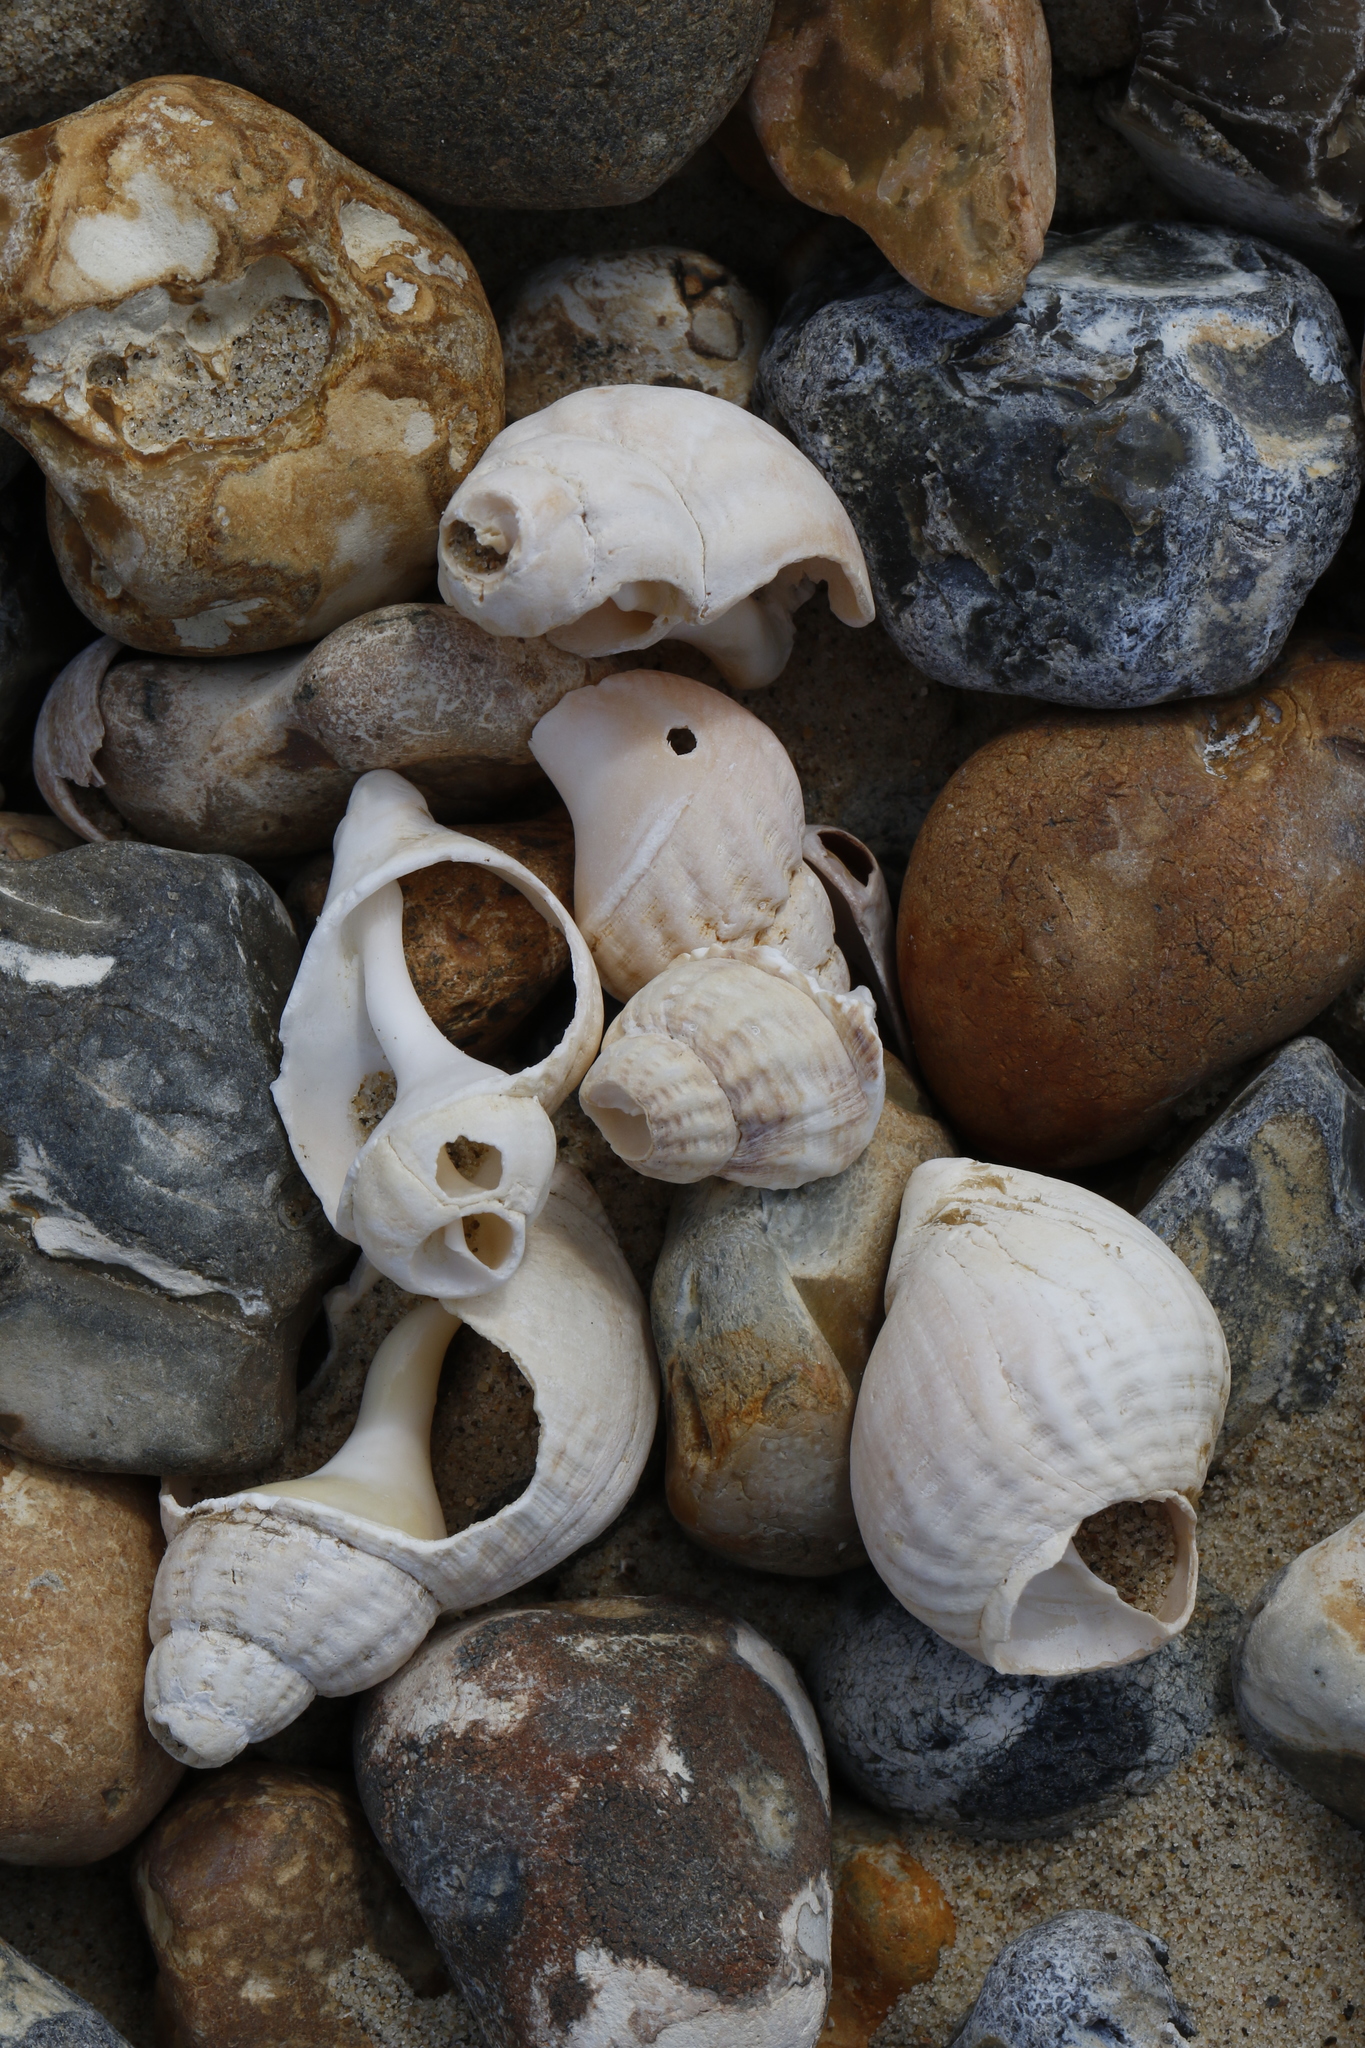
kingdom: Animalia
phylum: Mollusca
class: Gastropoda
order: Neogastropoda
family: Buccinidae
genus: Buccinum
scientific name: Buccinum undatum
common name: Common whelk
